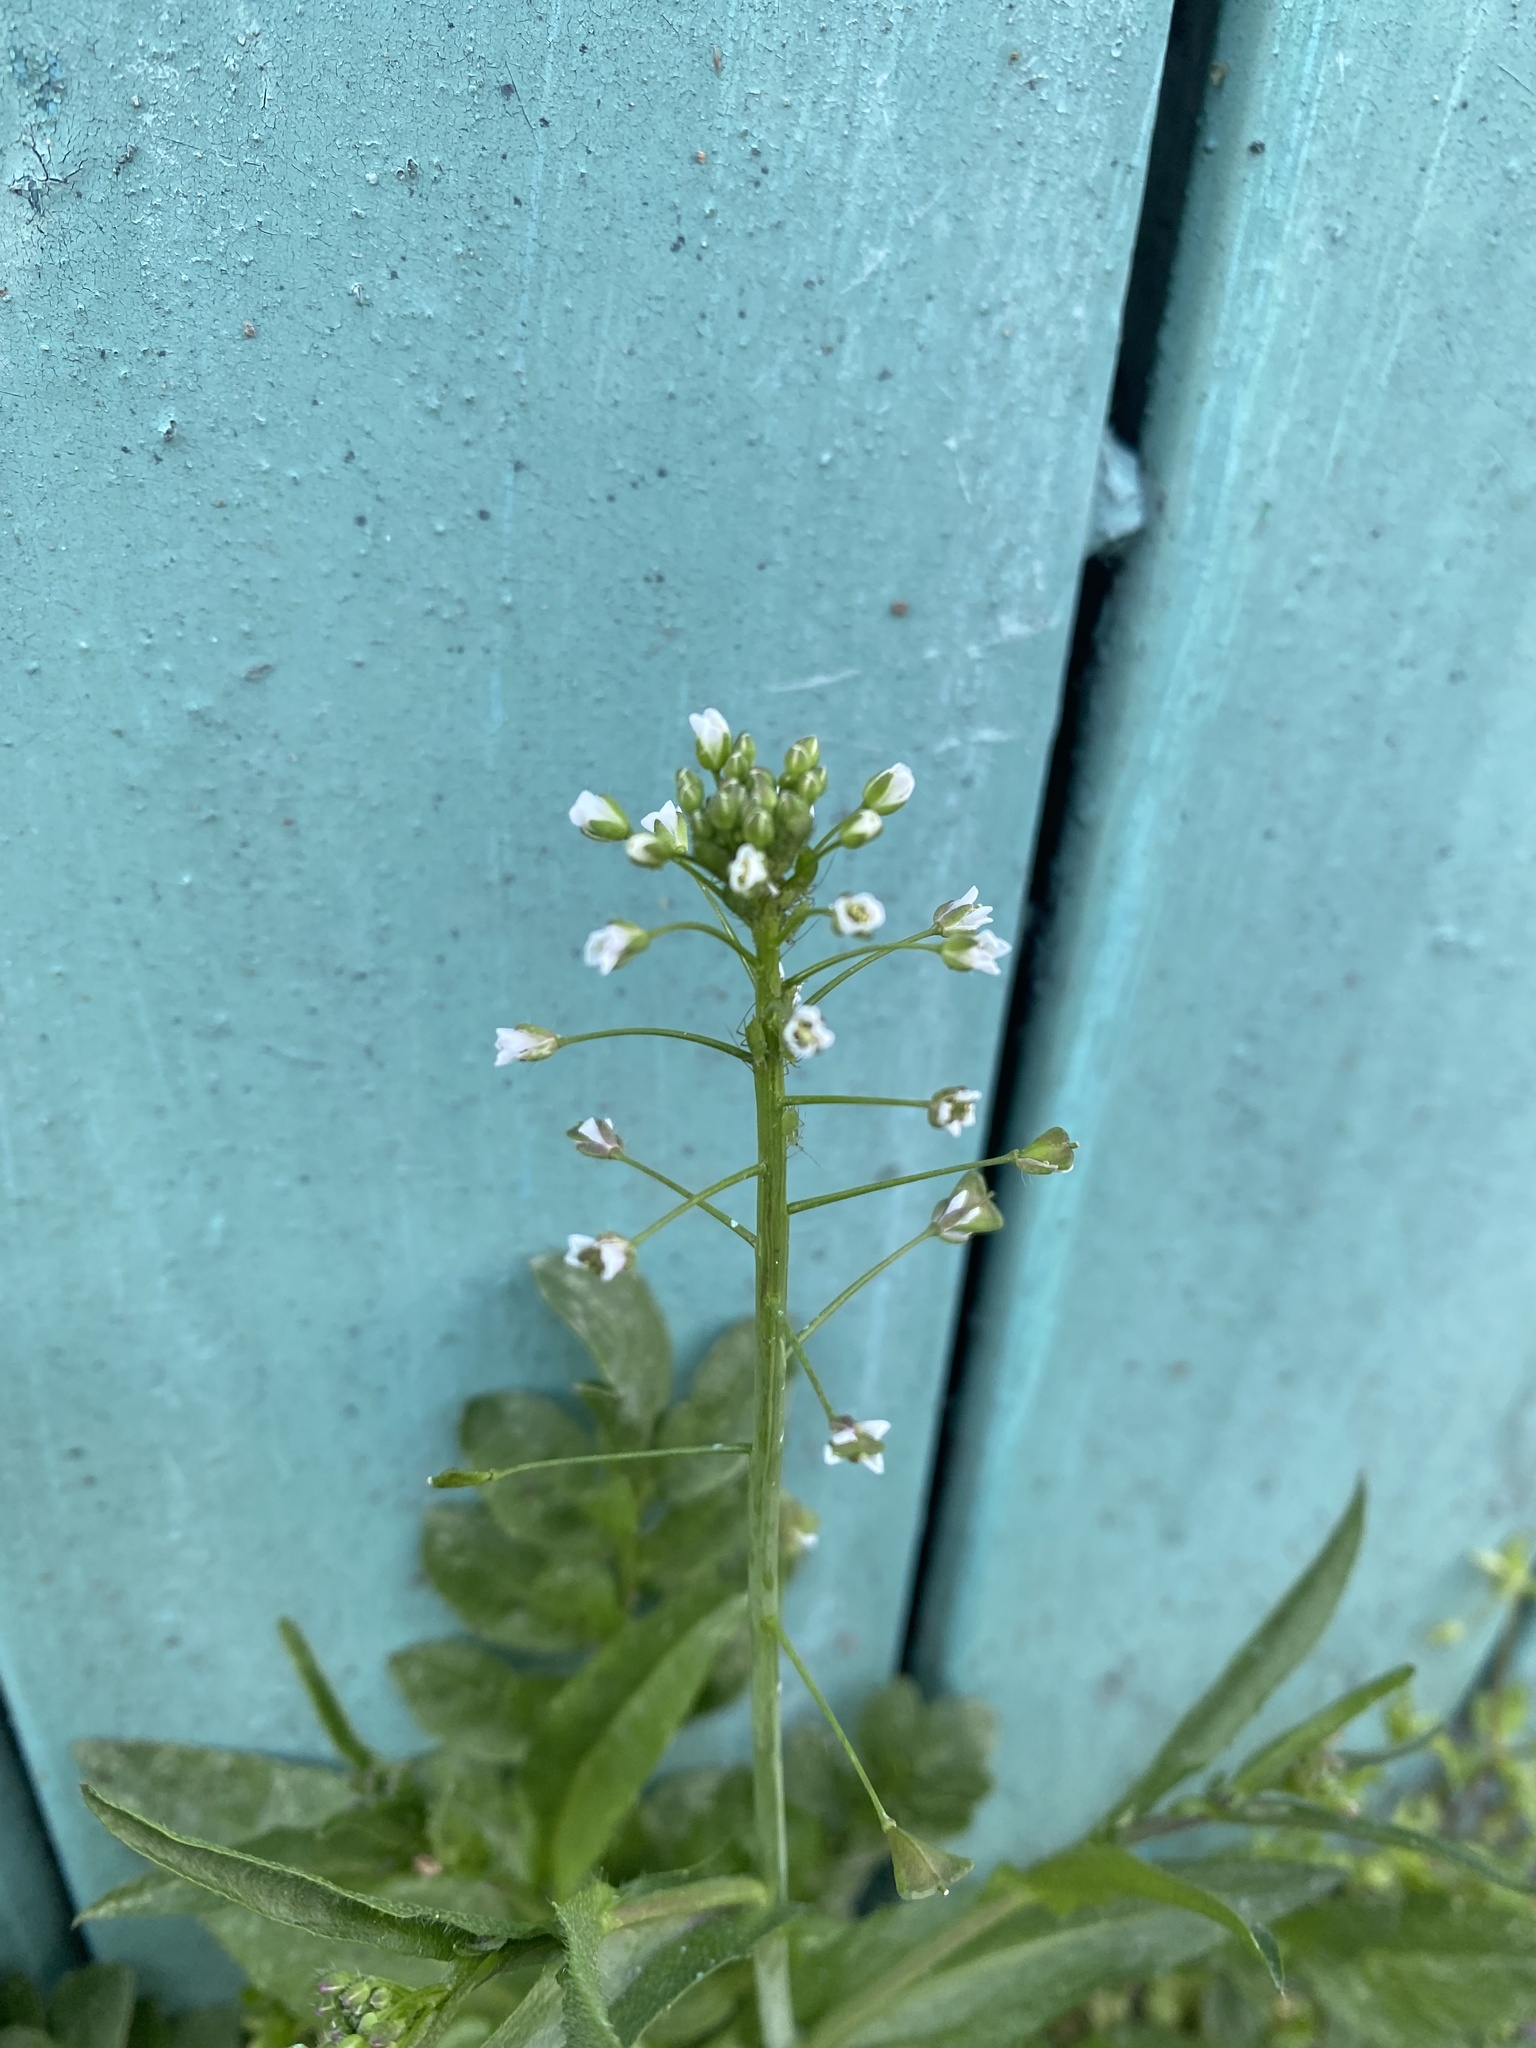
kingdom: Plantae
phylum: Tracheophyta
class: Magnoliopsida
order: Brassicales
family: Brassicaceae
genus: Capsella
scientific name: Capsella bursa-pastoris
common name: Shepherd's purse
